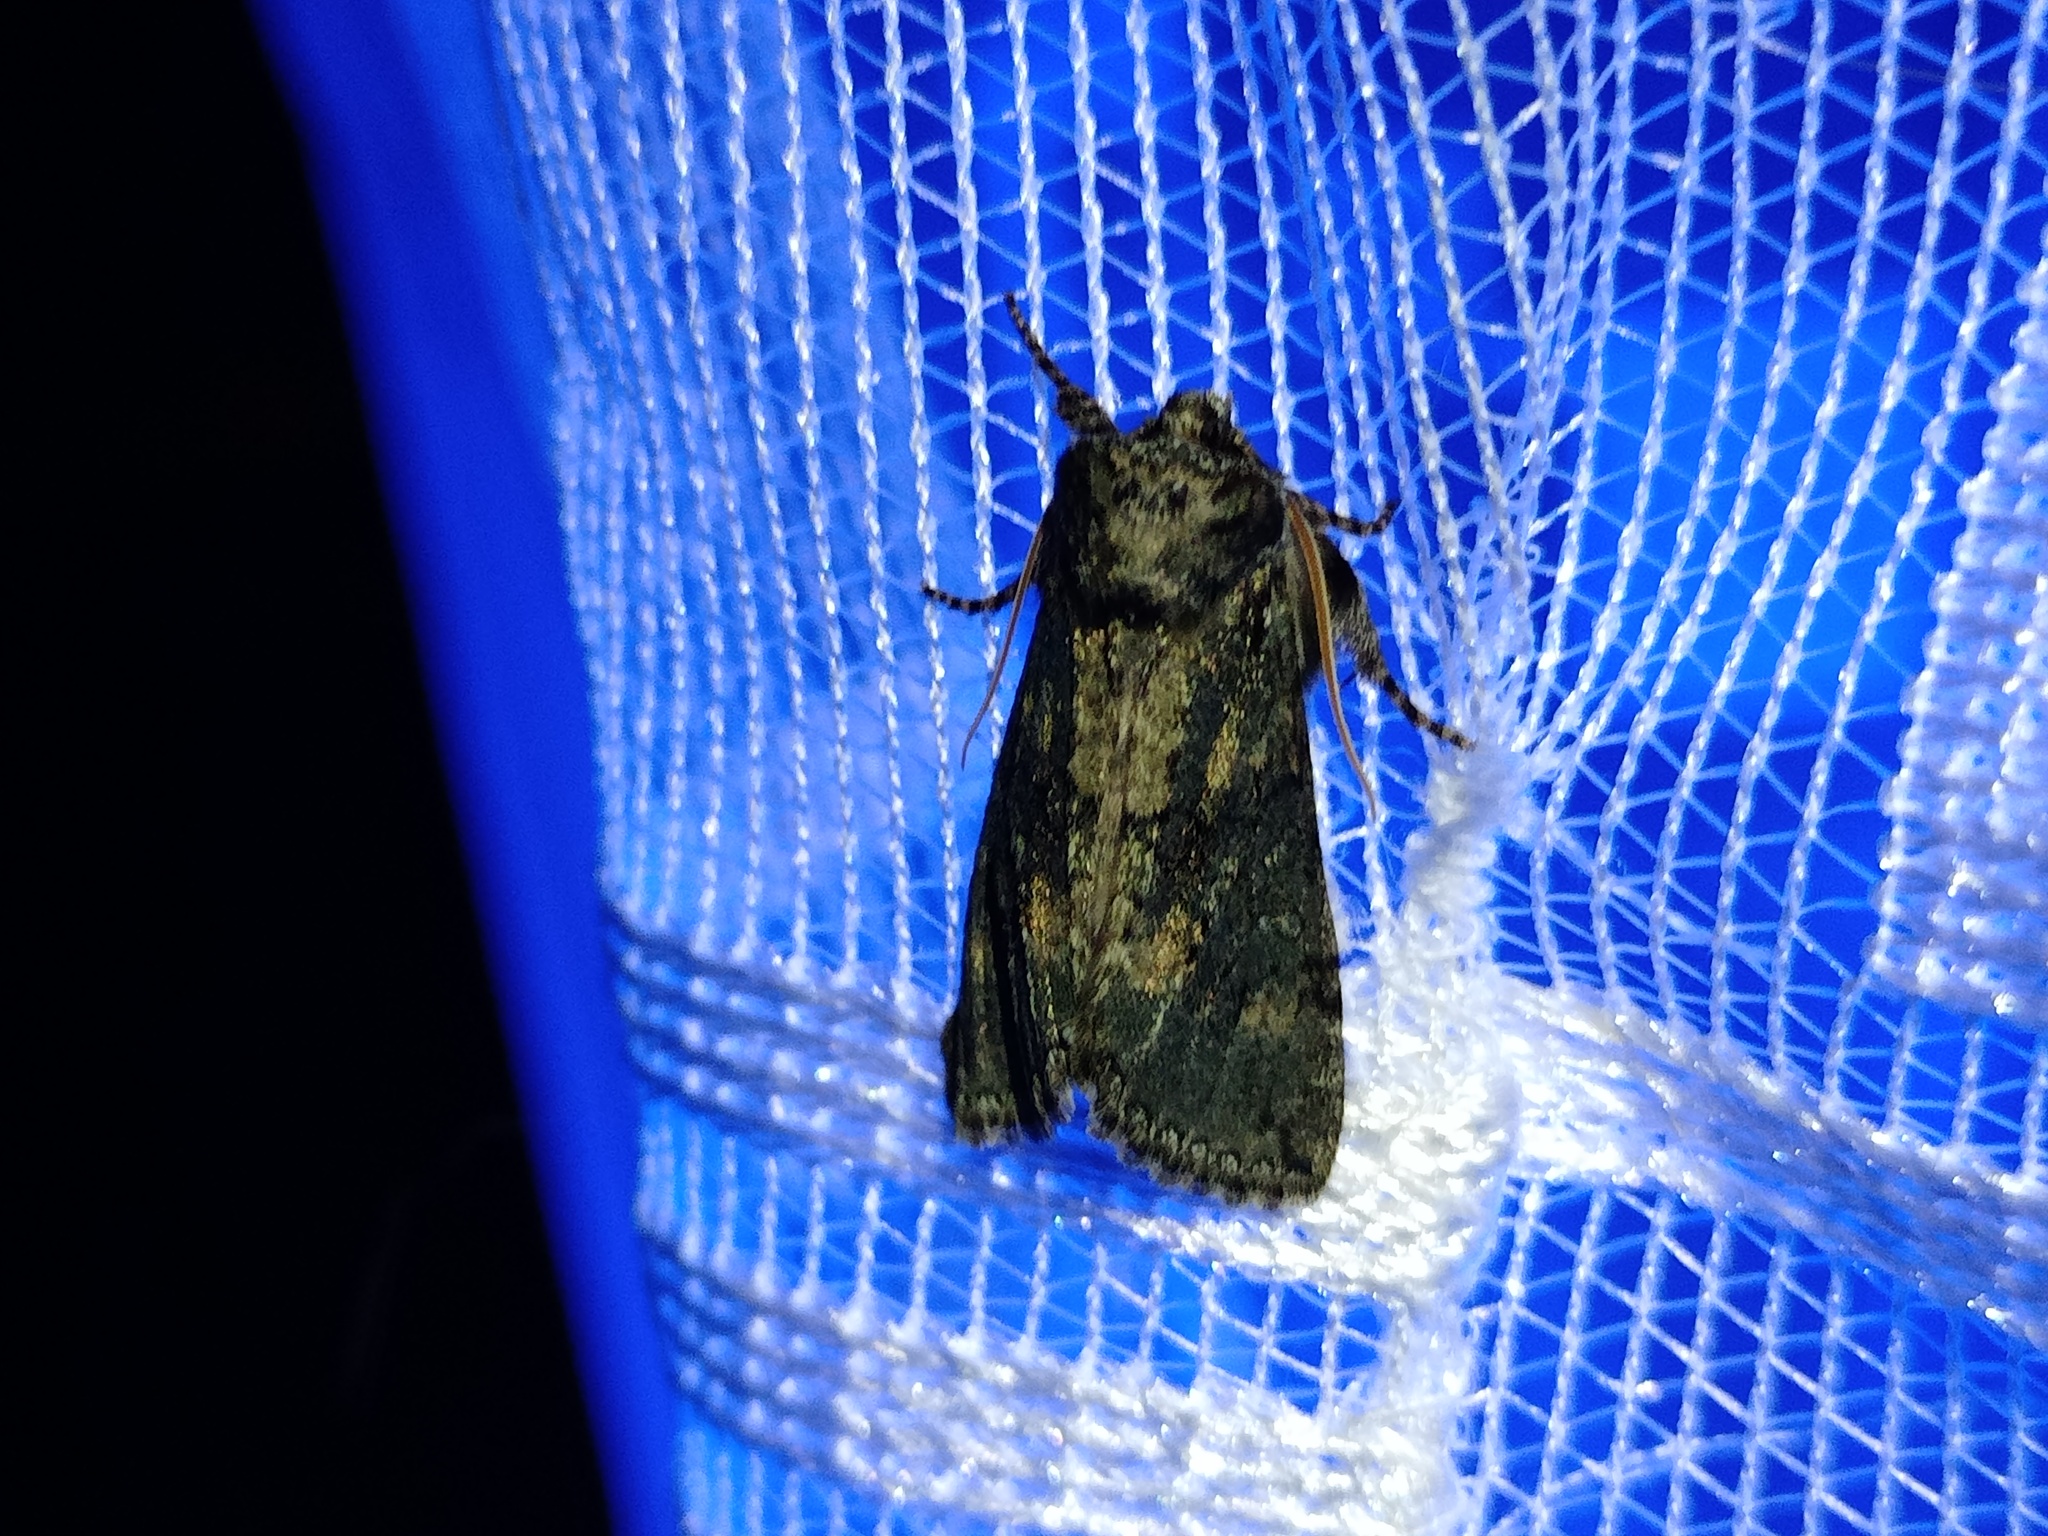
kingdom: Animalia
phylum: Arthropoda
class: Insecta
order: Lepidoptera
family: Drepanidae
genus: Polyploca
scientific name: Polyploca ridens
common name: Frosted green
